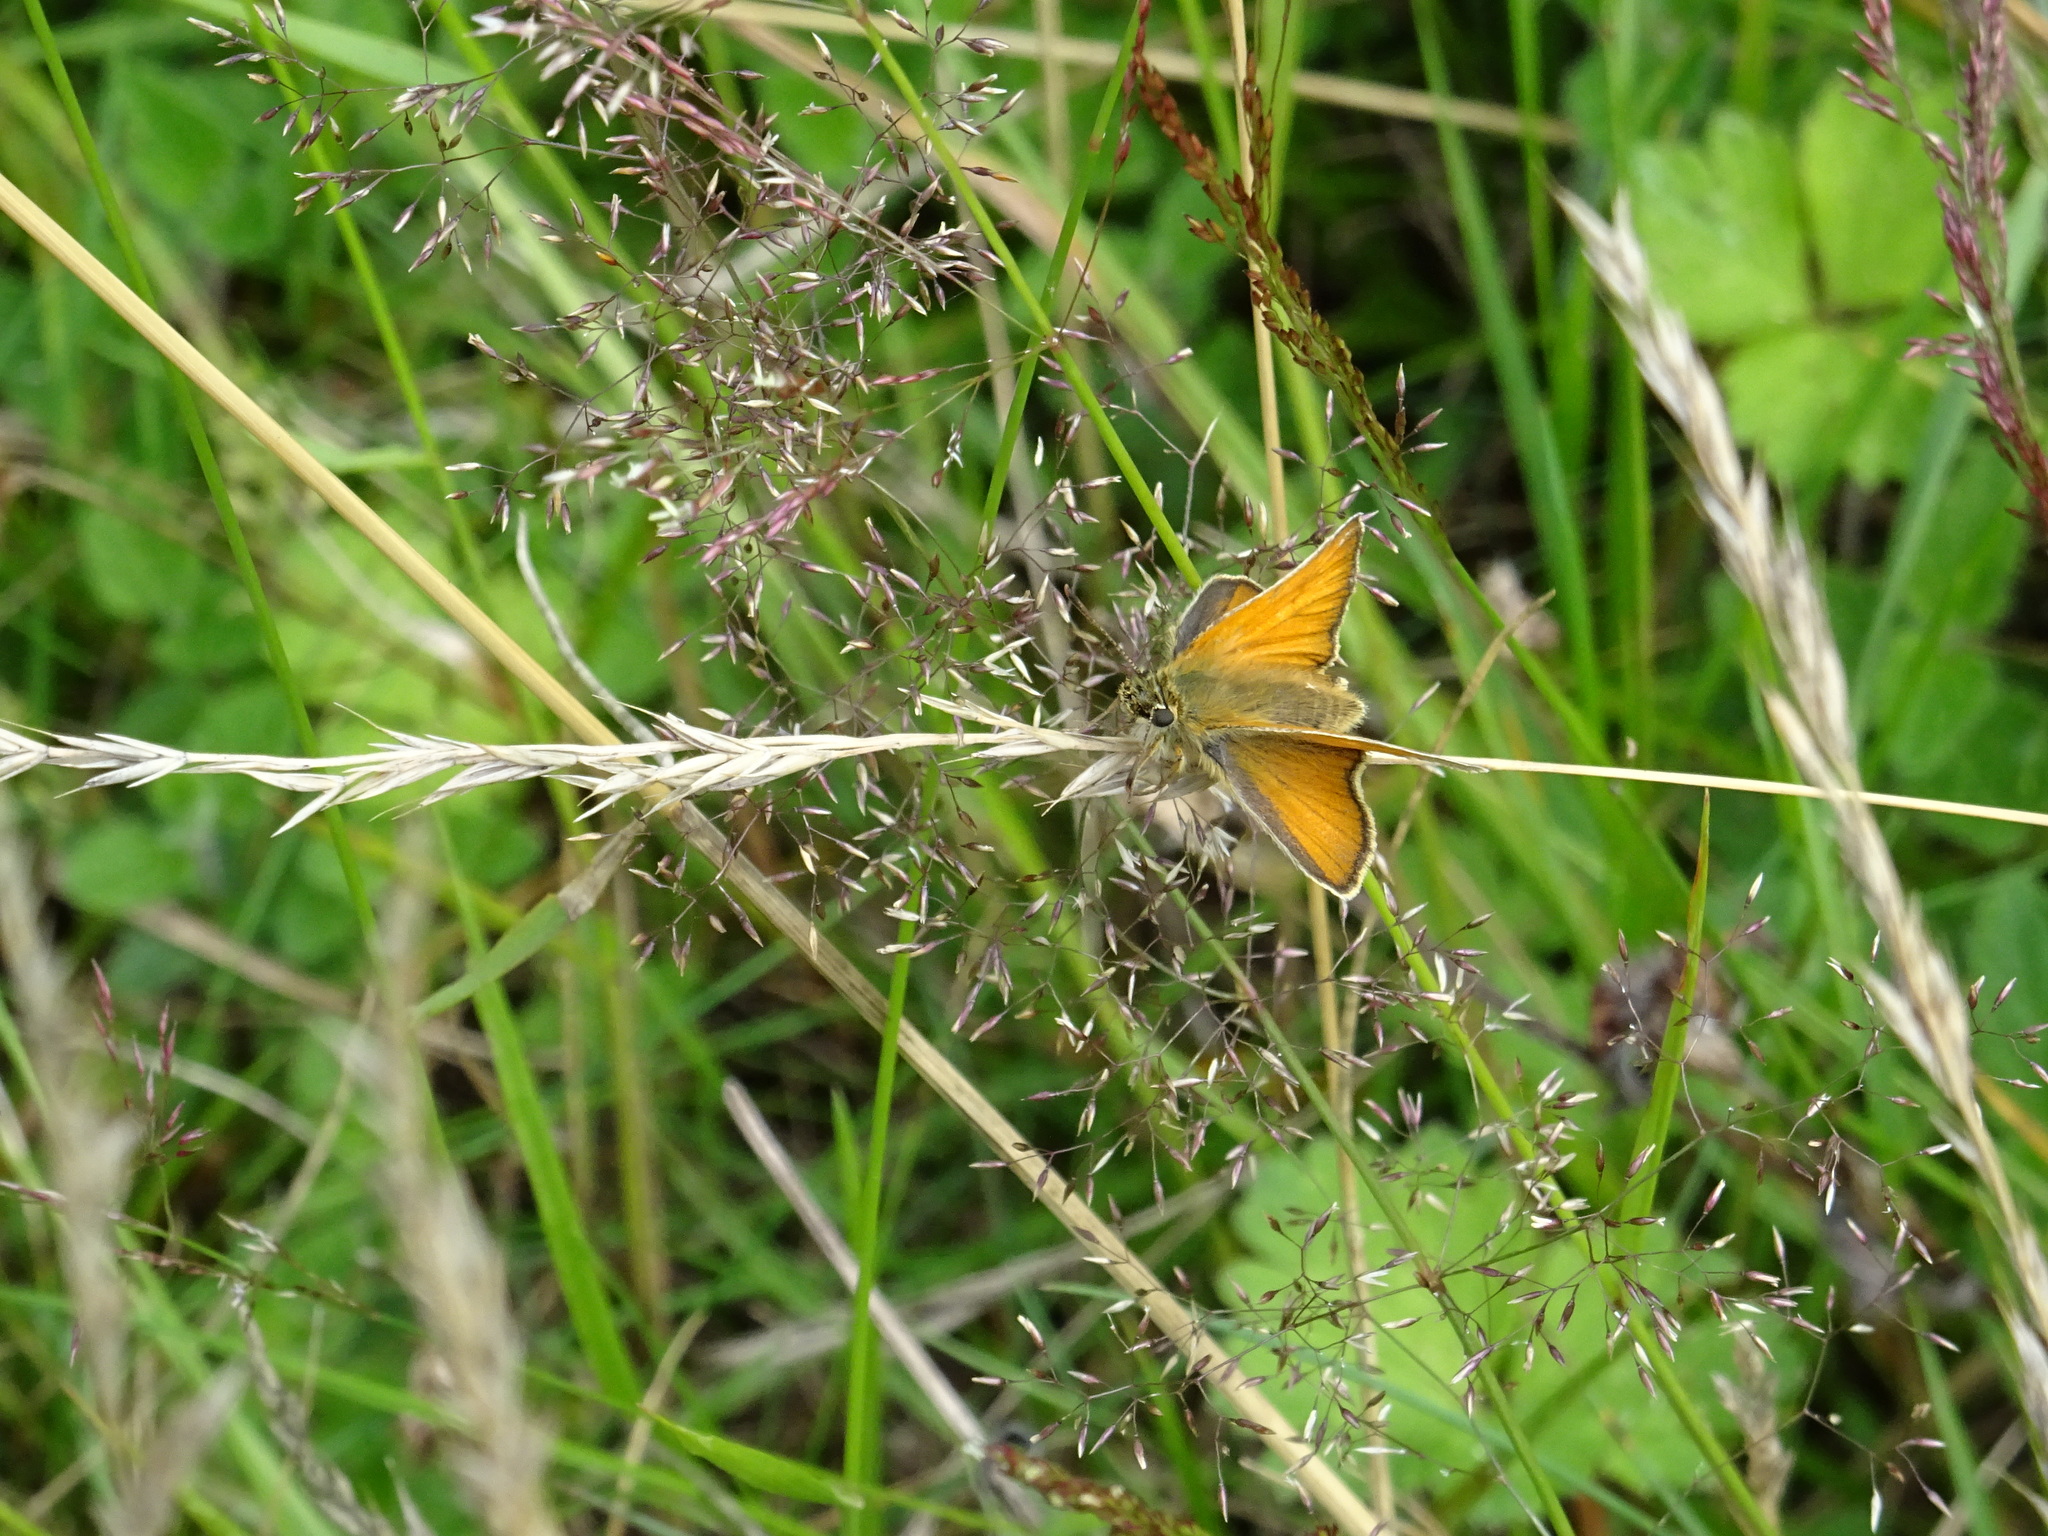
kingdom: Animalia
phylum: Arthropoda
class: Insecta
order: Lepidoptera
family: Hesperiidae
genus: Thymelicus
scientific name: Thymelicus sylvestris
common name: Small skipper
